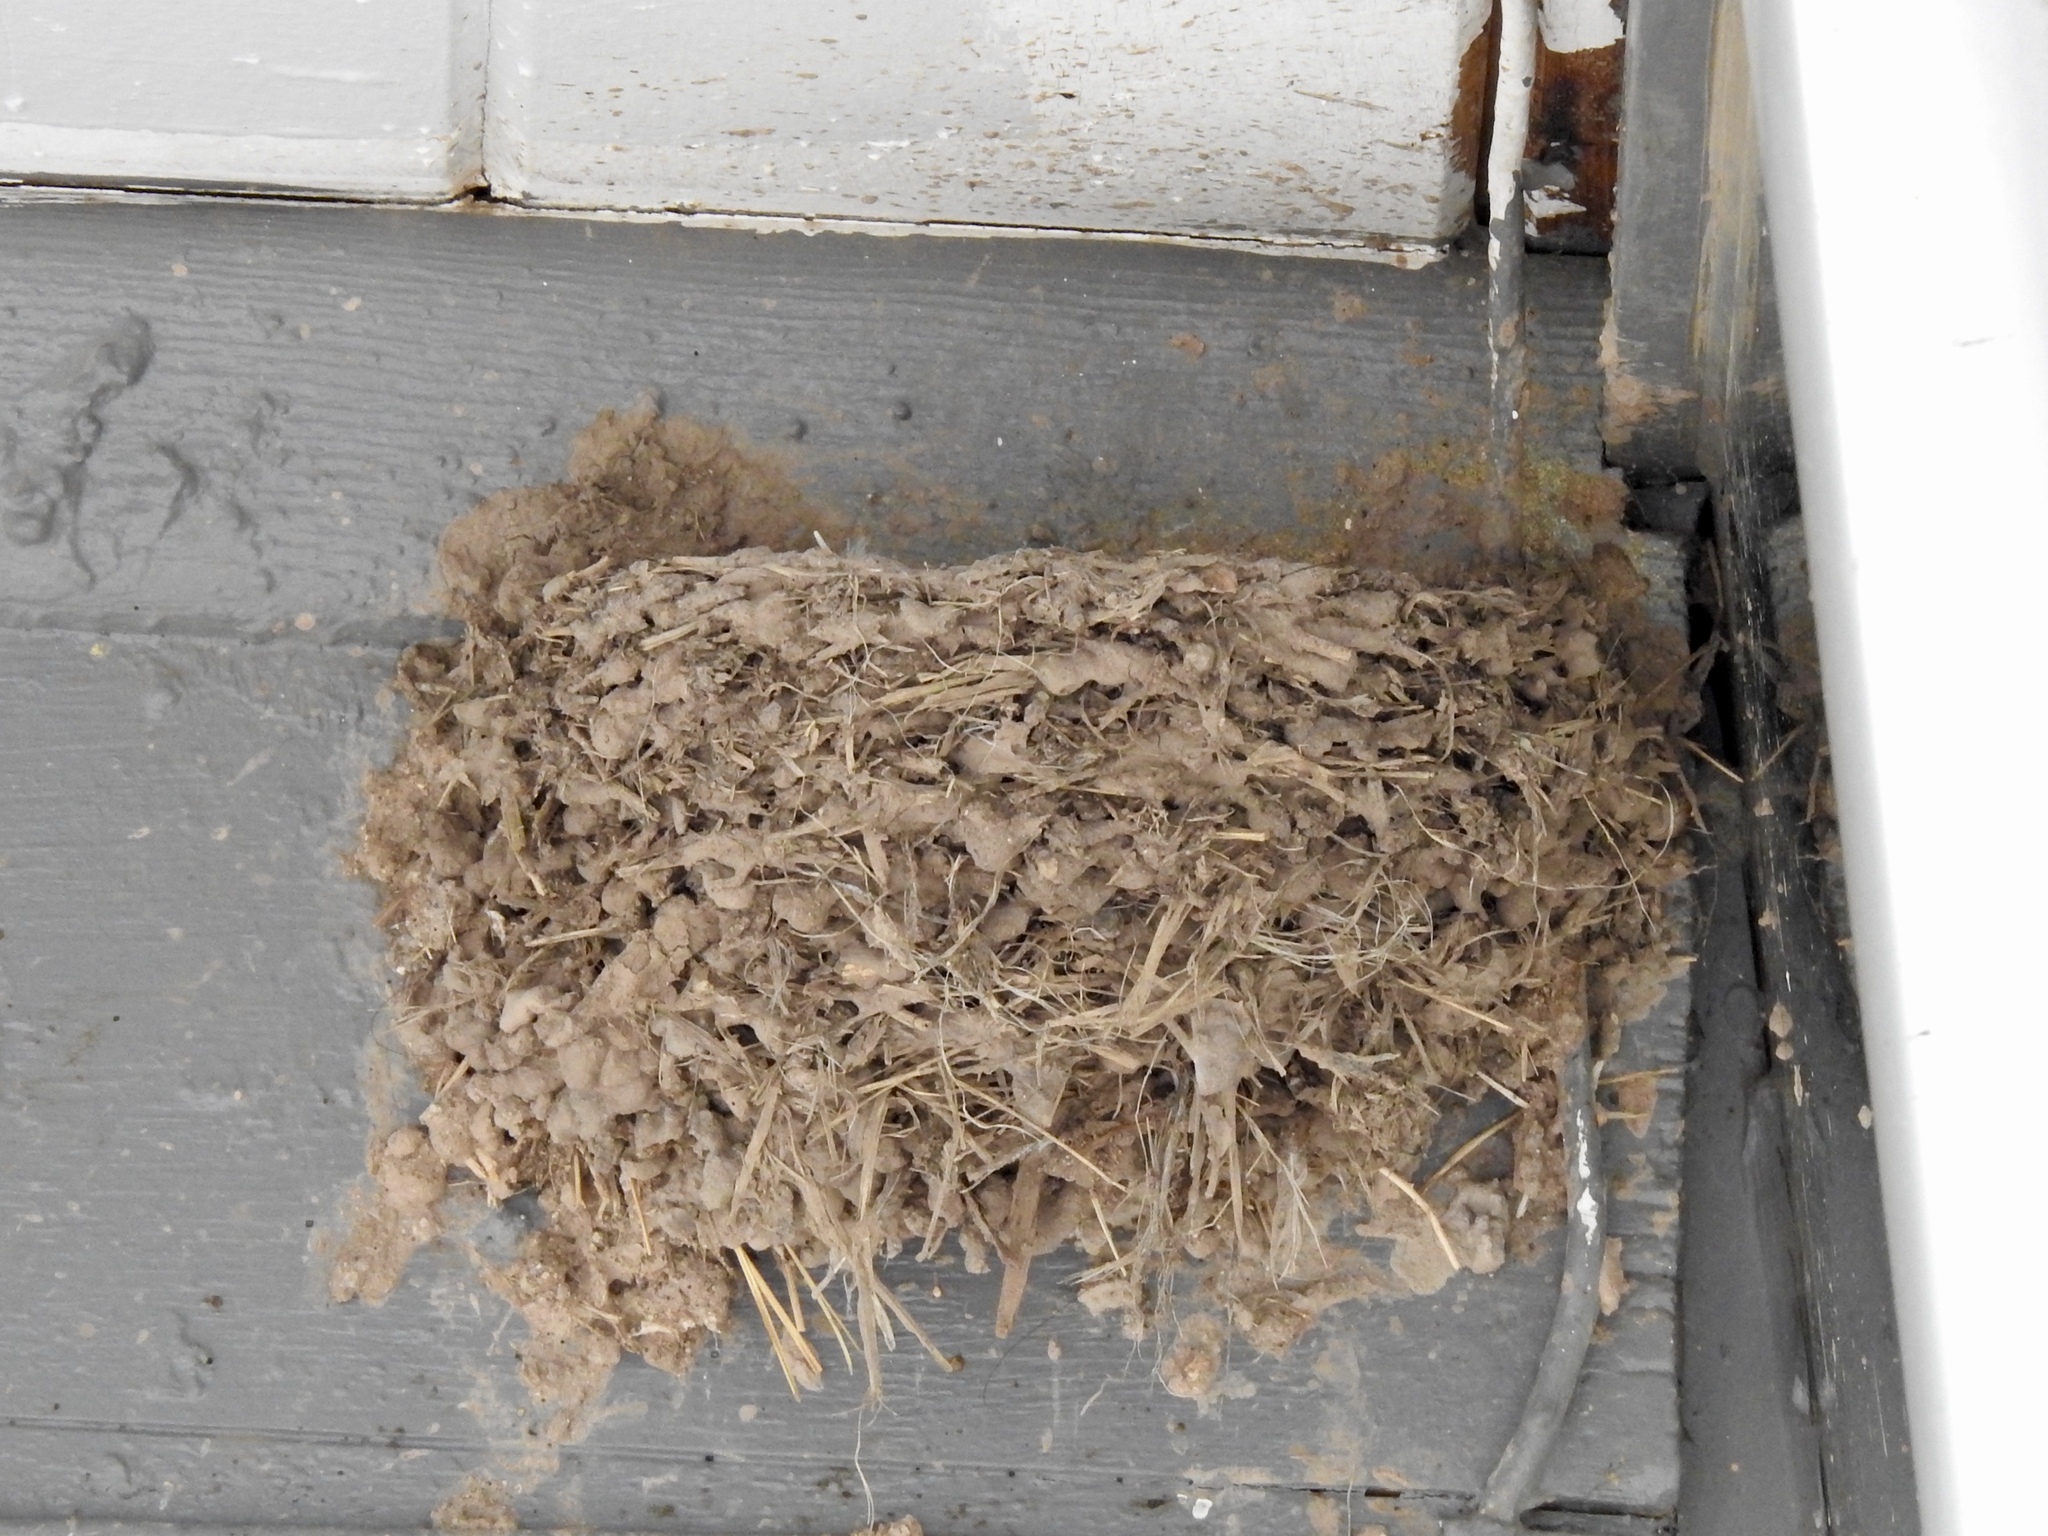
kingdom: Animalia
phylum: Chordata
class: Aves
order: Passeriformes
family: Hirundinidae
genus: Hirundo
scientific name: Hirundo rustica
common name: Barn swallow
